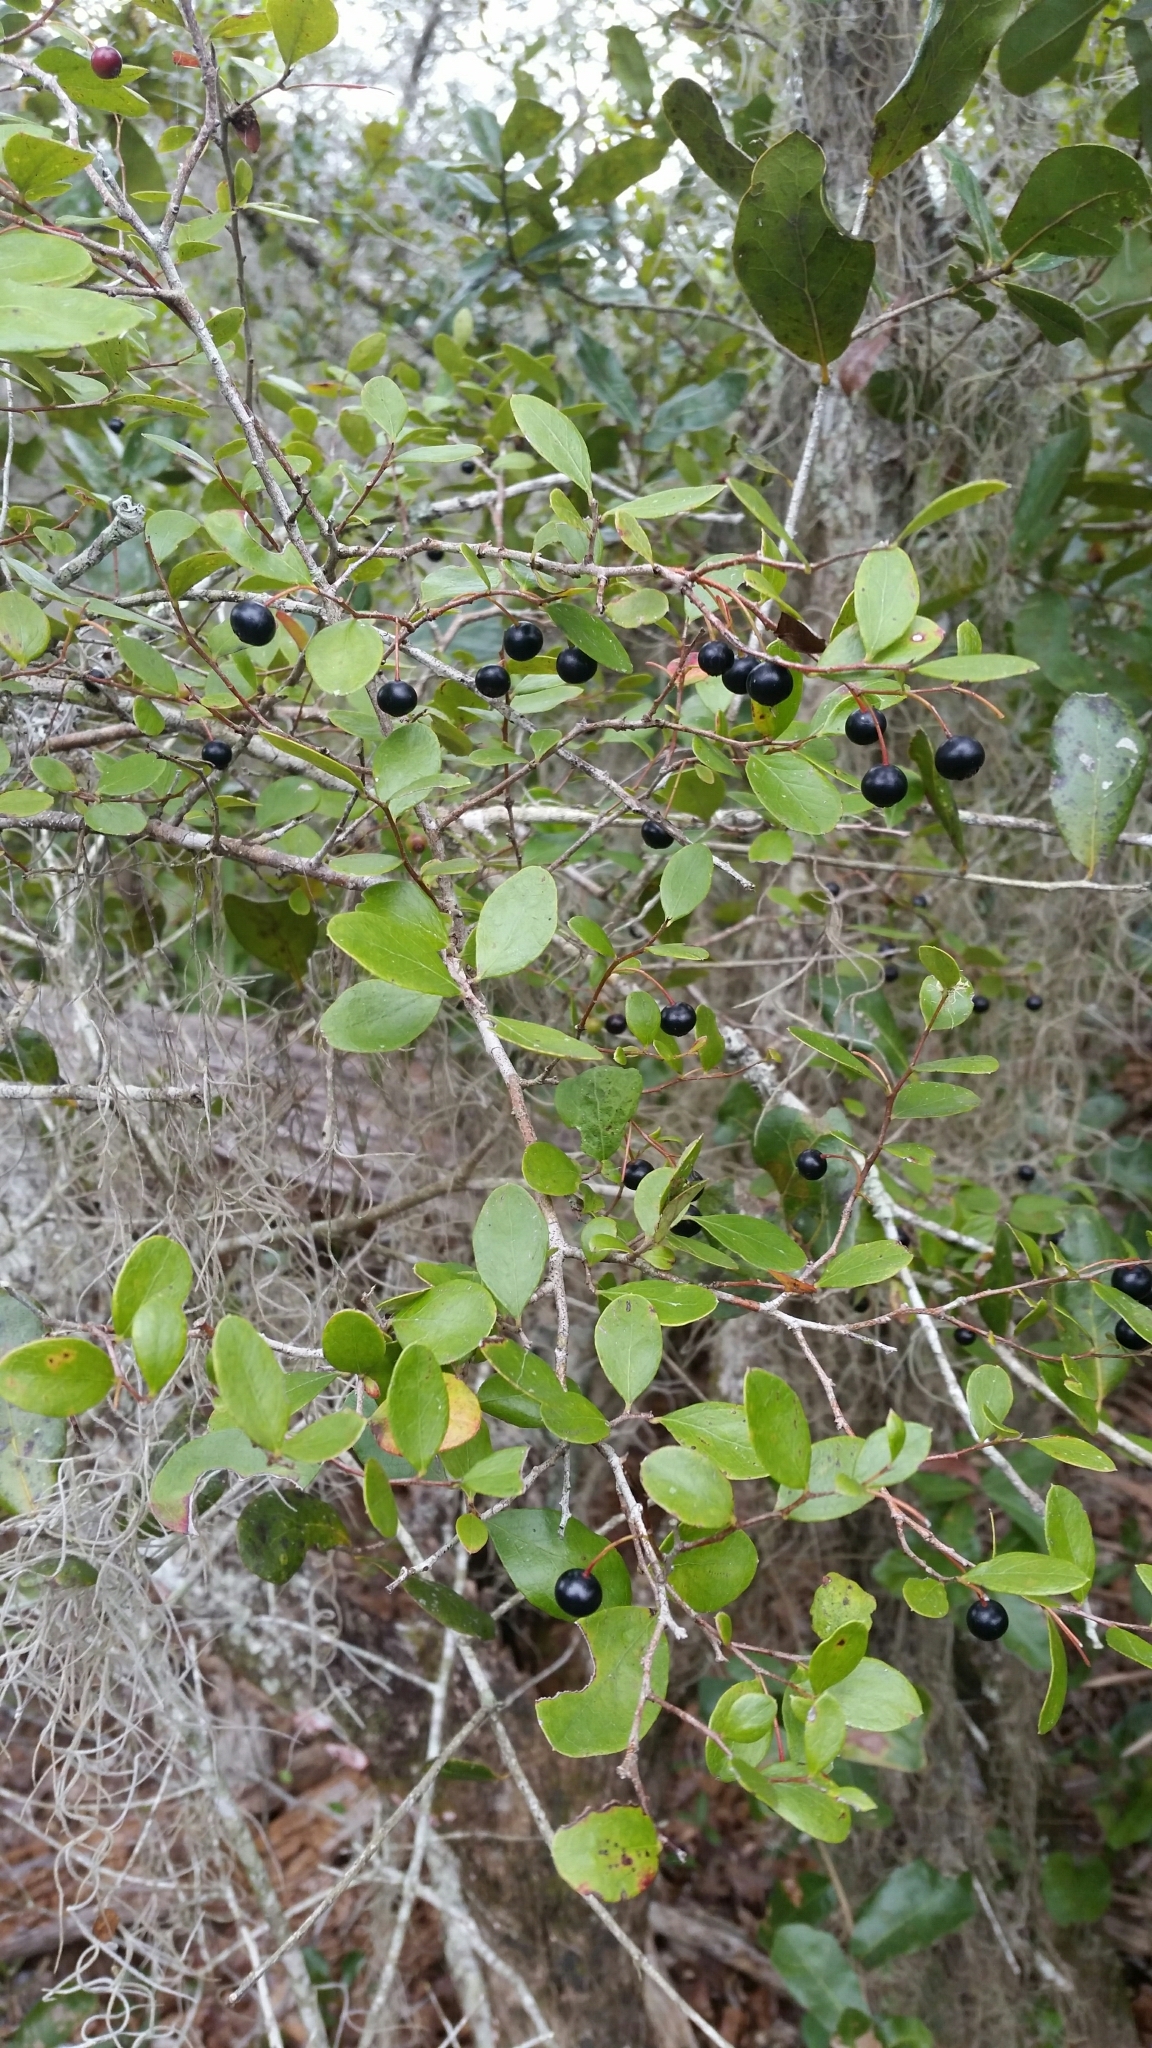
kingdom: Plantae
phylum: Tracheophyta
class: Magnoliopsida
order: Ericales
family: Ericaceae
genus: Vaccinium
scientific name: Vaccinium arboreum
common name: Farkleberry
